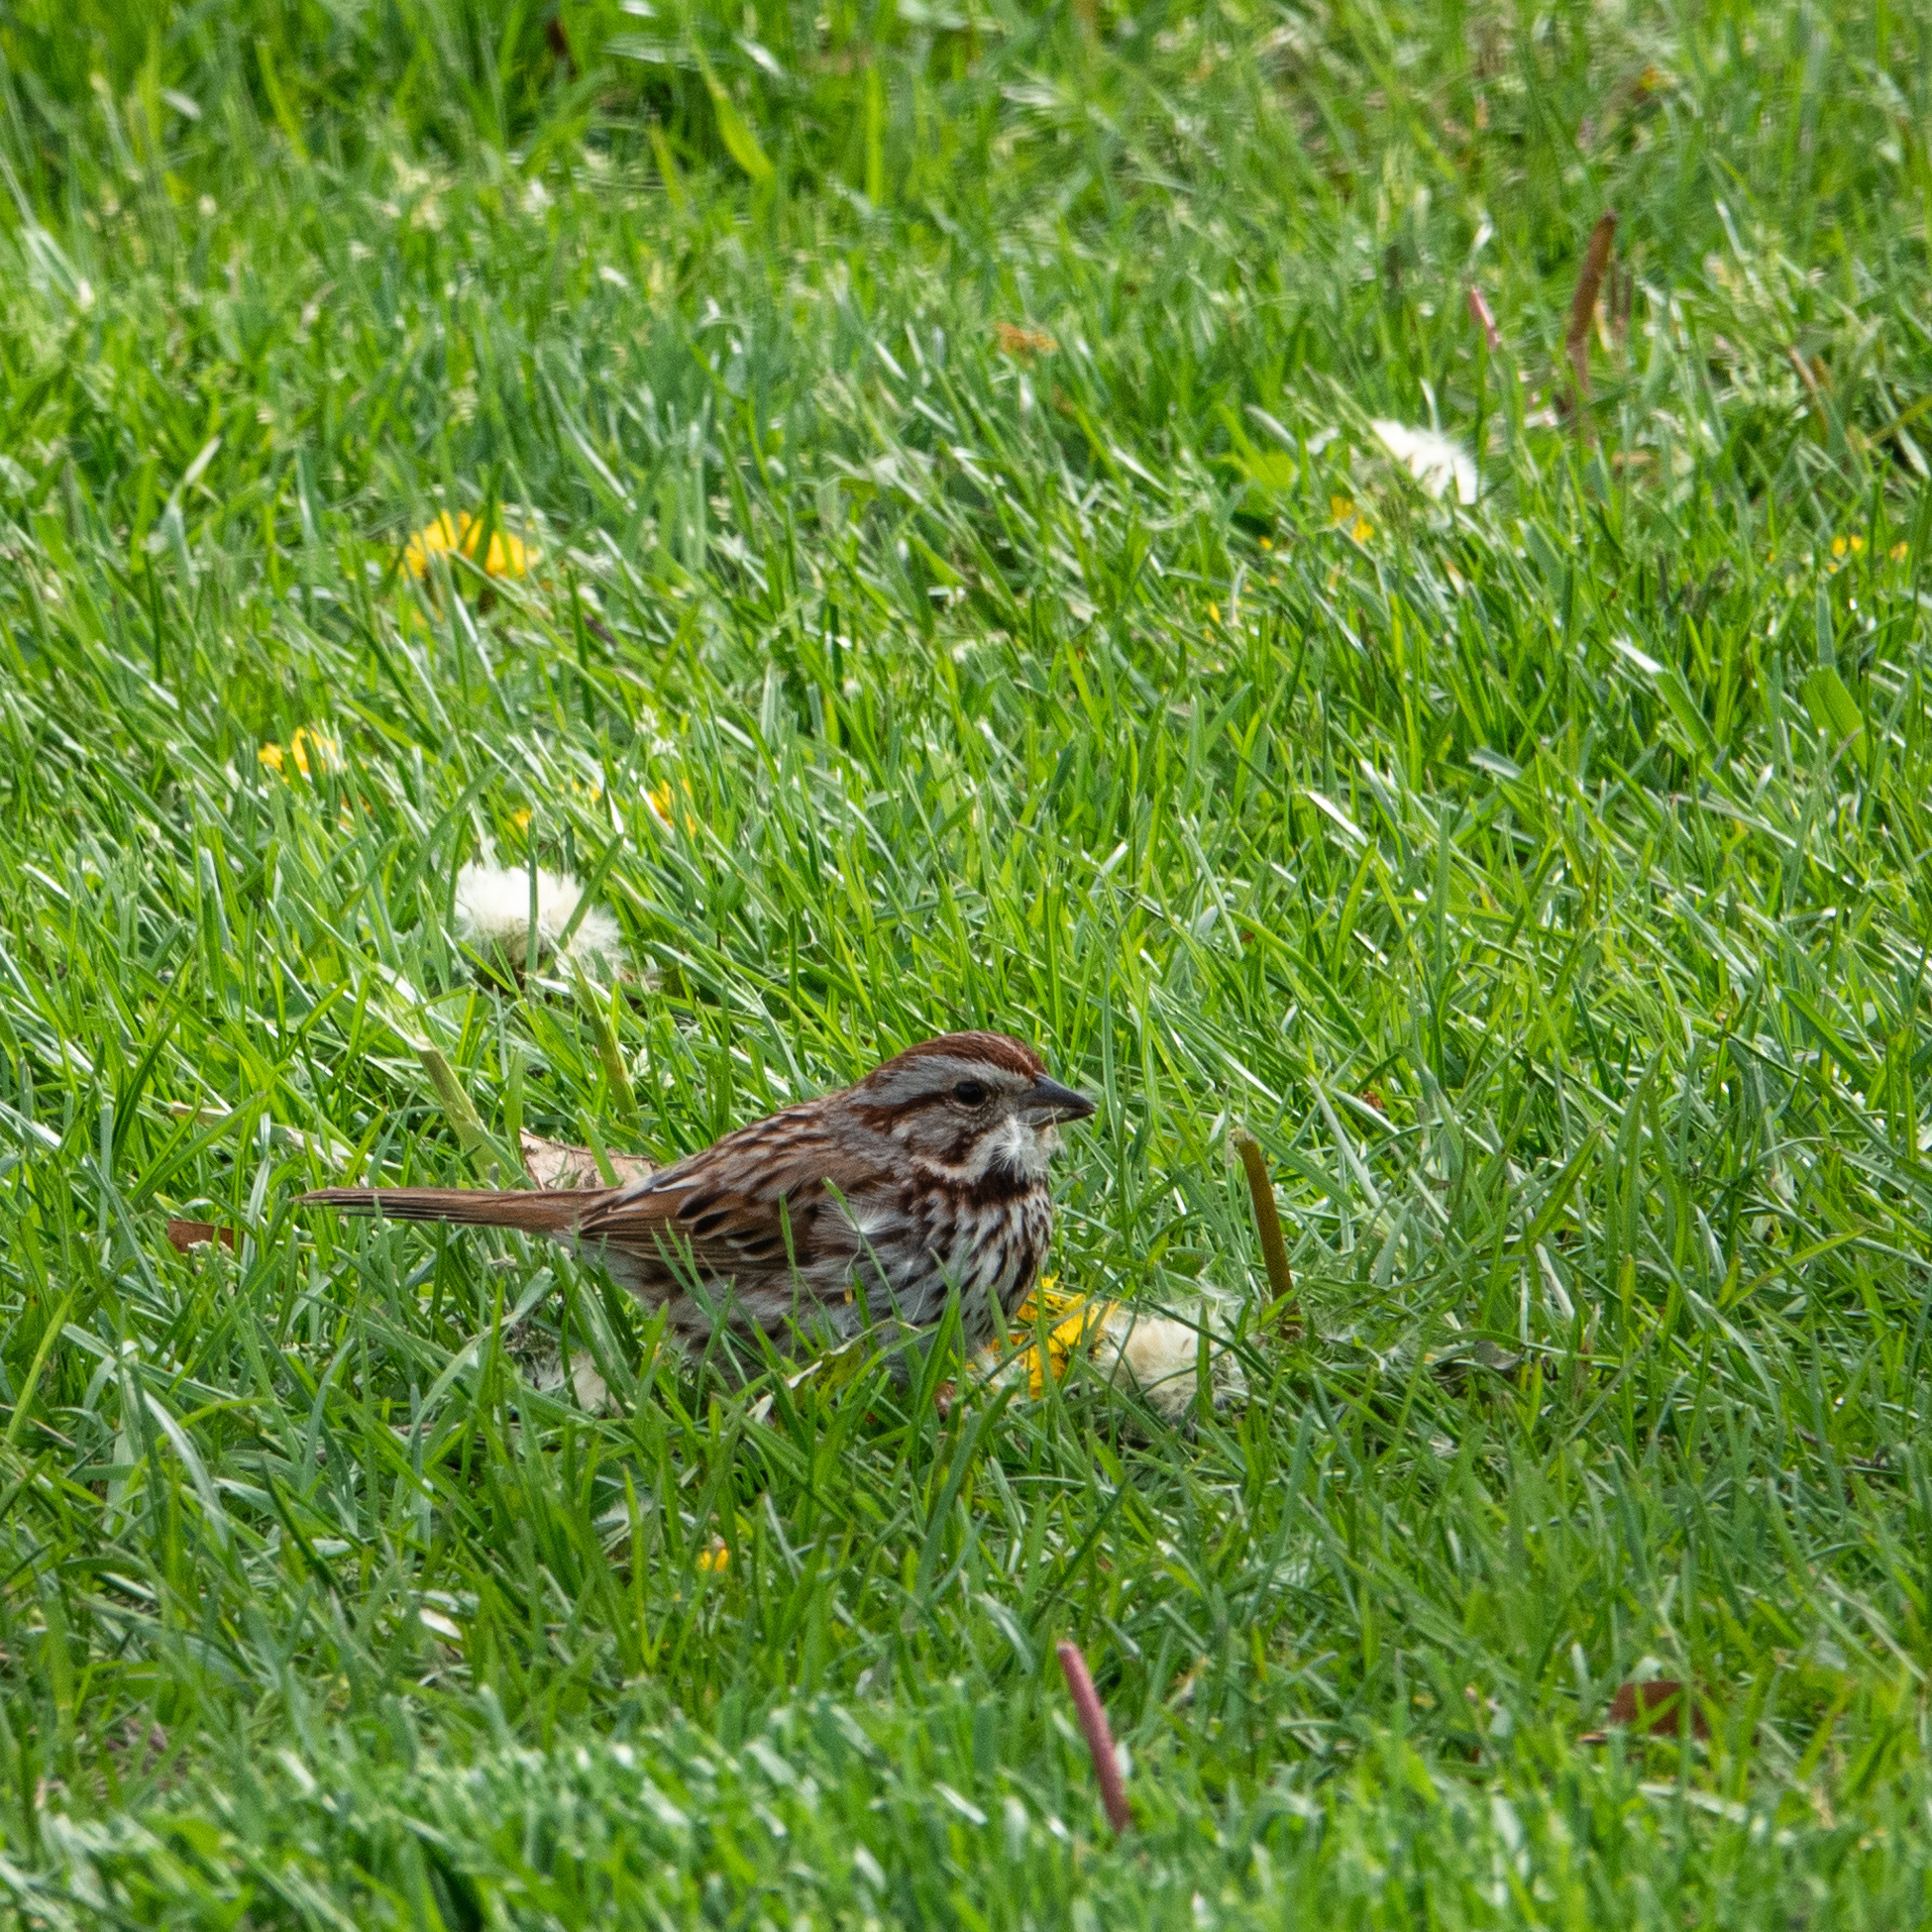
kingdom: Animalia
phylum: Chordata
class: Aves
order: Passeriformes
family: Passerellidae
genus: Melospiza
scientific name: Melospiza melodia
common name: Song sparrow
